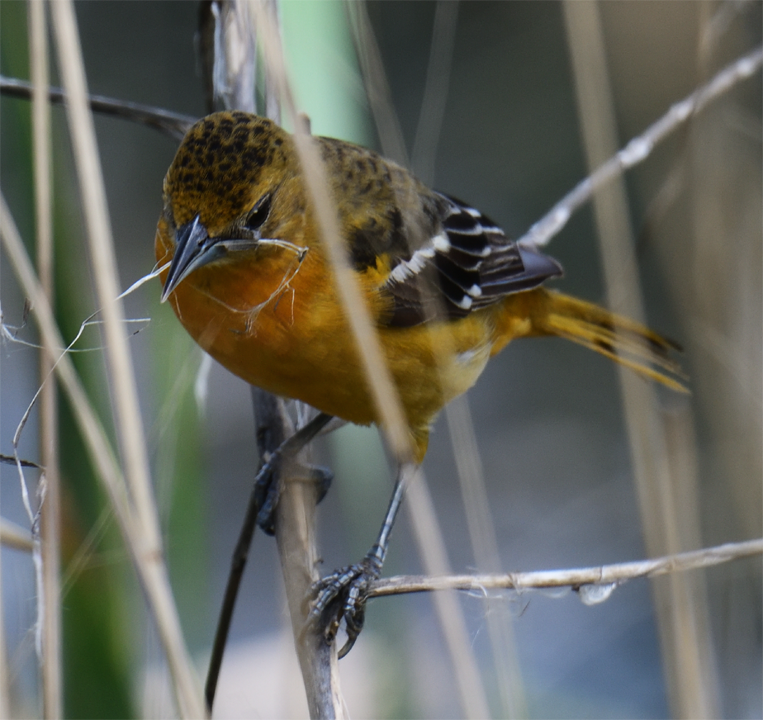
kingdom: Animalia
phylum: Chordata
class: Aves
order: Passeriformes
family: Icteridae
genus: Icterus
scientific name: Icterus galbula
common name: Baltimore oriole
